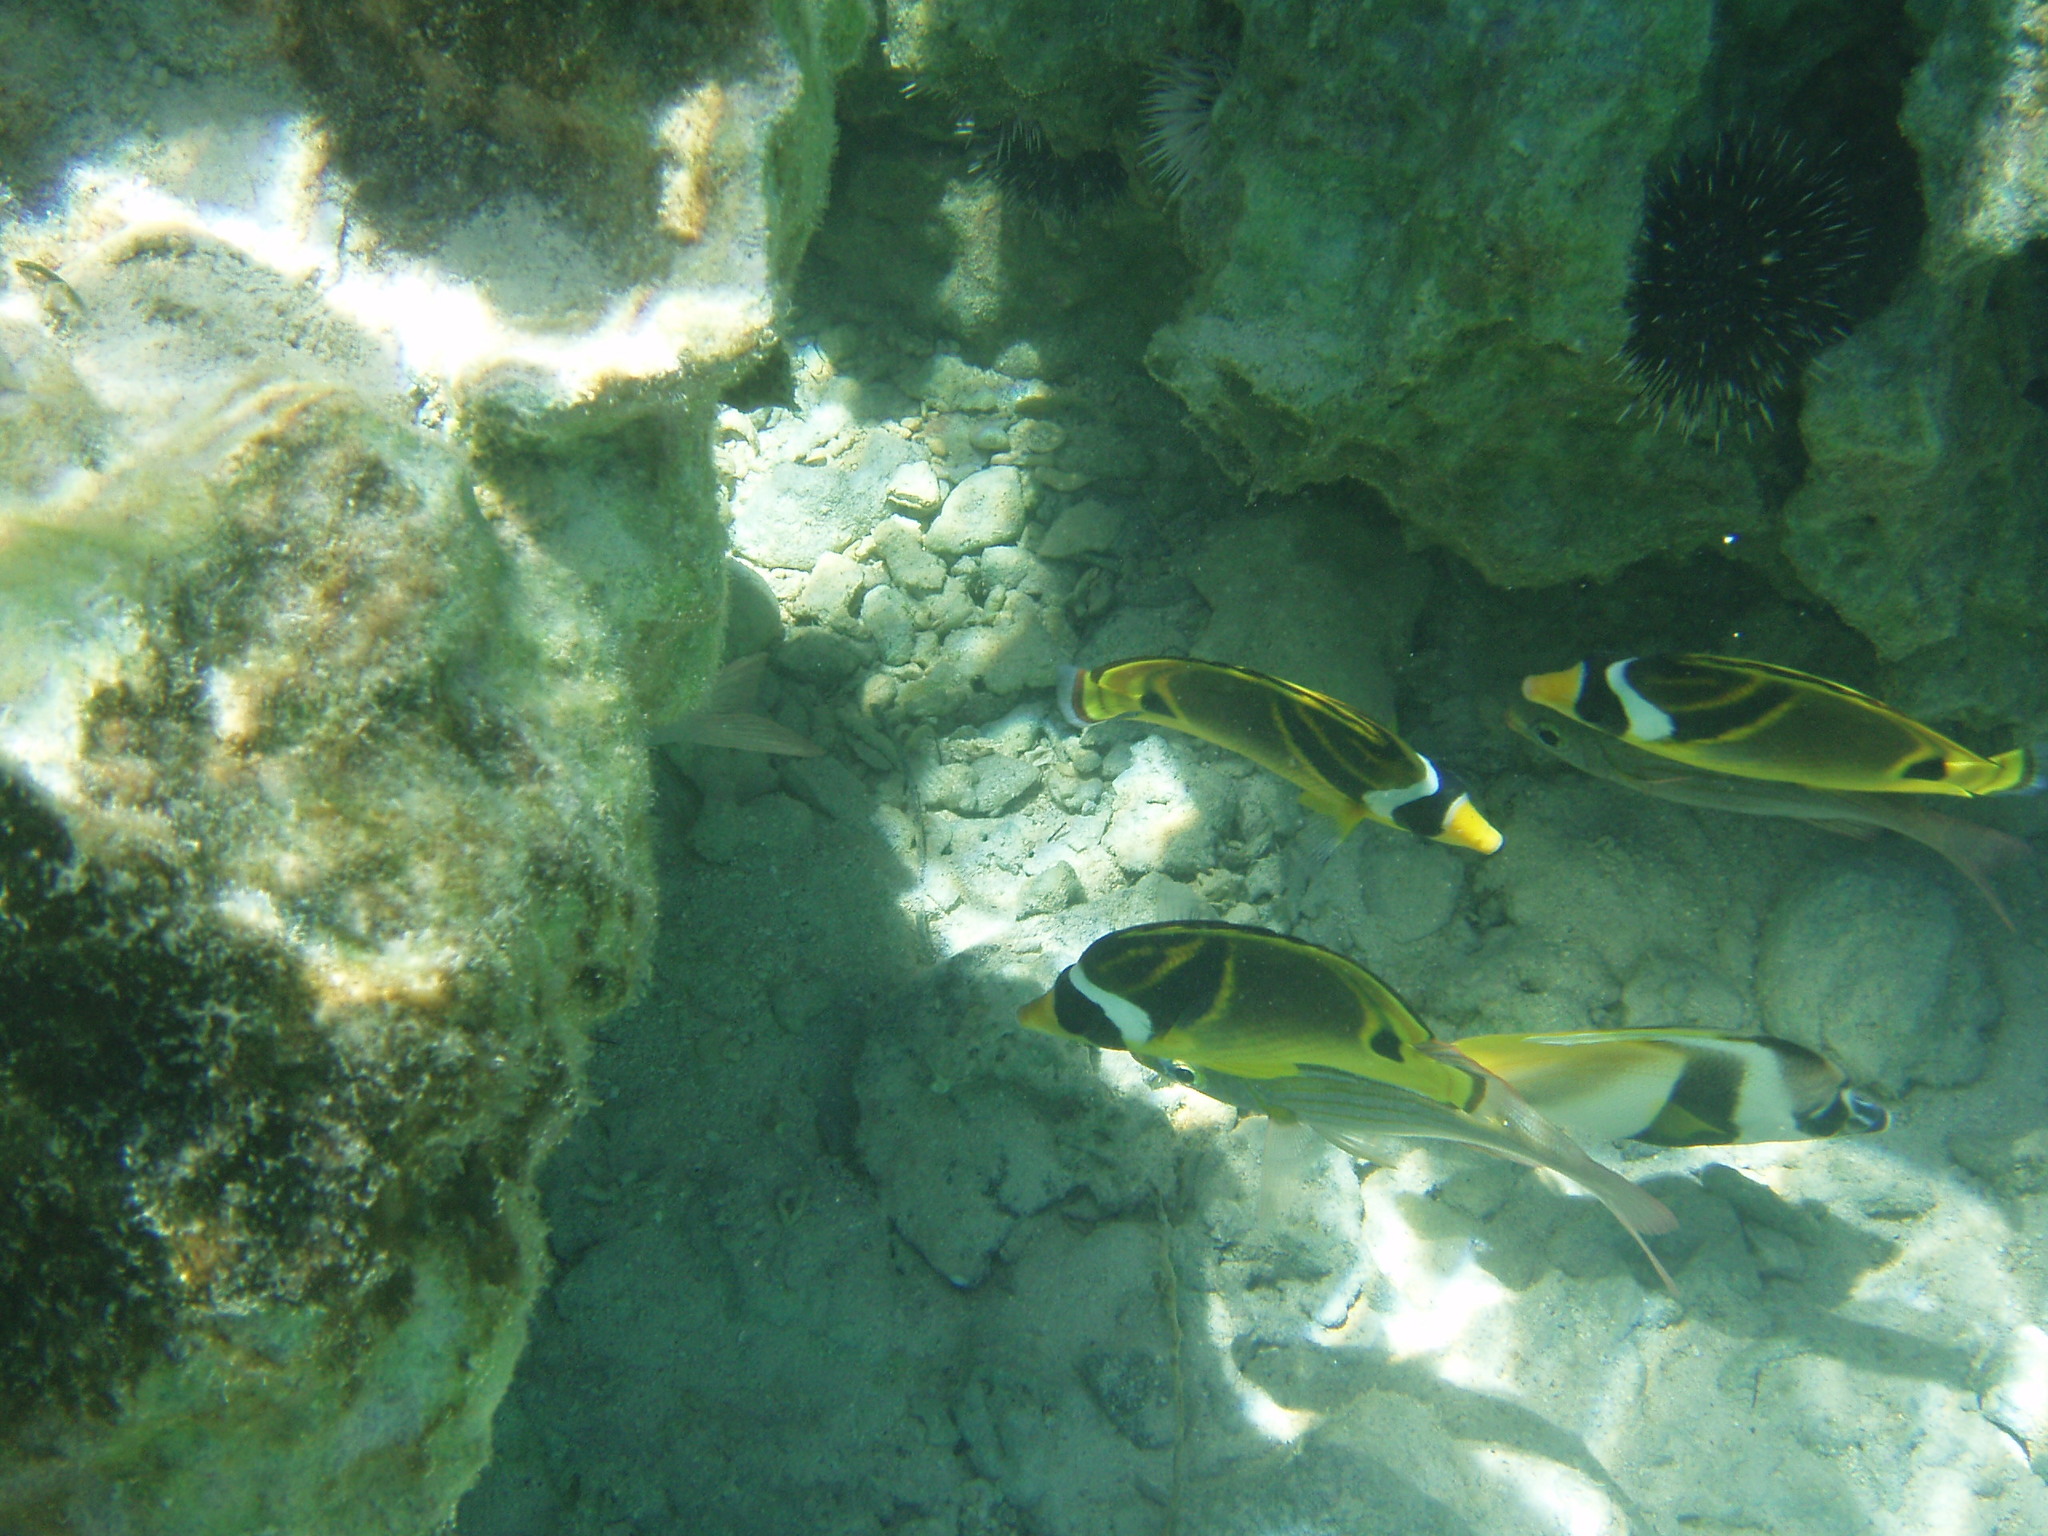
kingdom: Animalia
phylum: Chordata
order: Perciformes
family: Chaetodontidae
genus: Chaetodon
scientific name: Chaetodon lunula
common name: Raccoon butterflyfish
